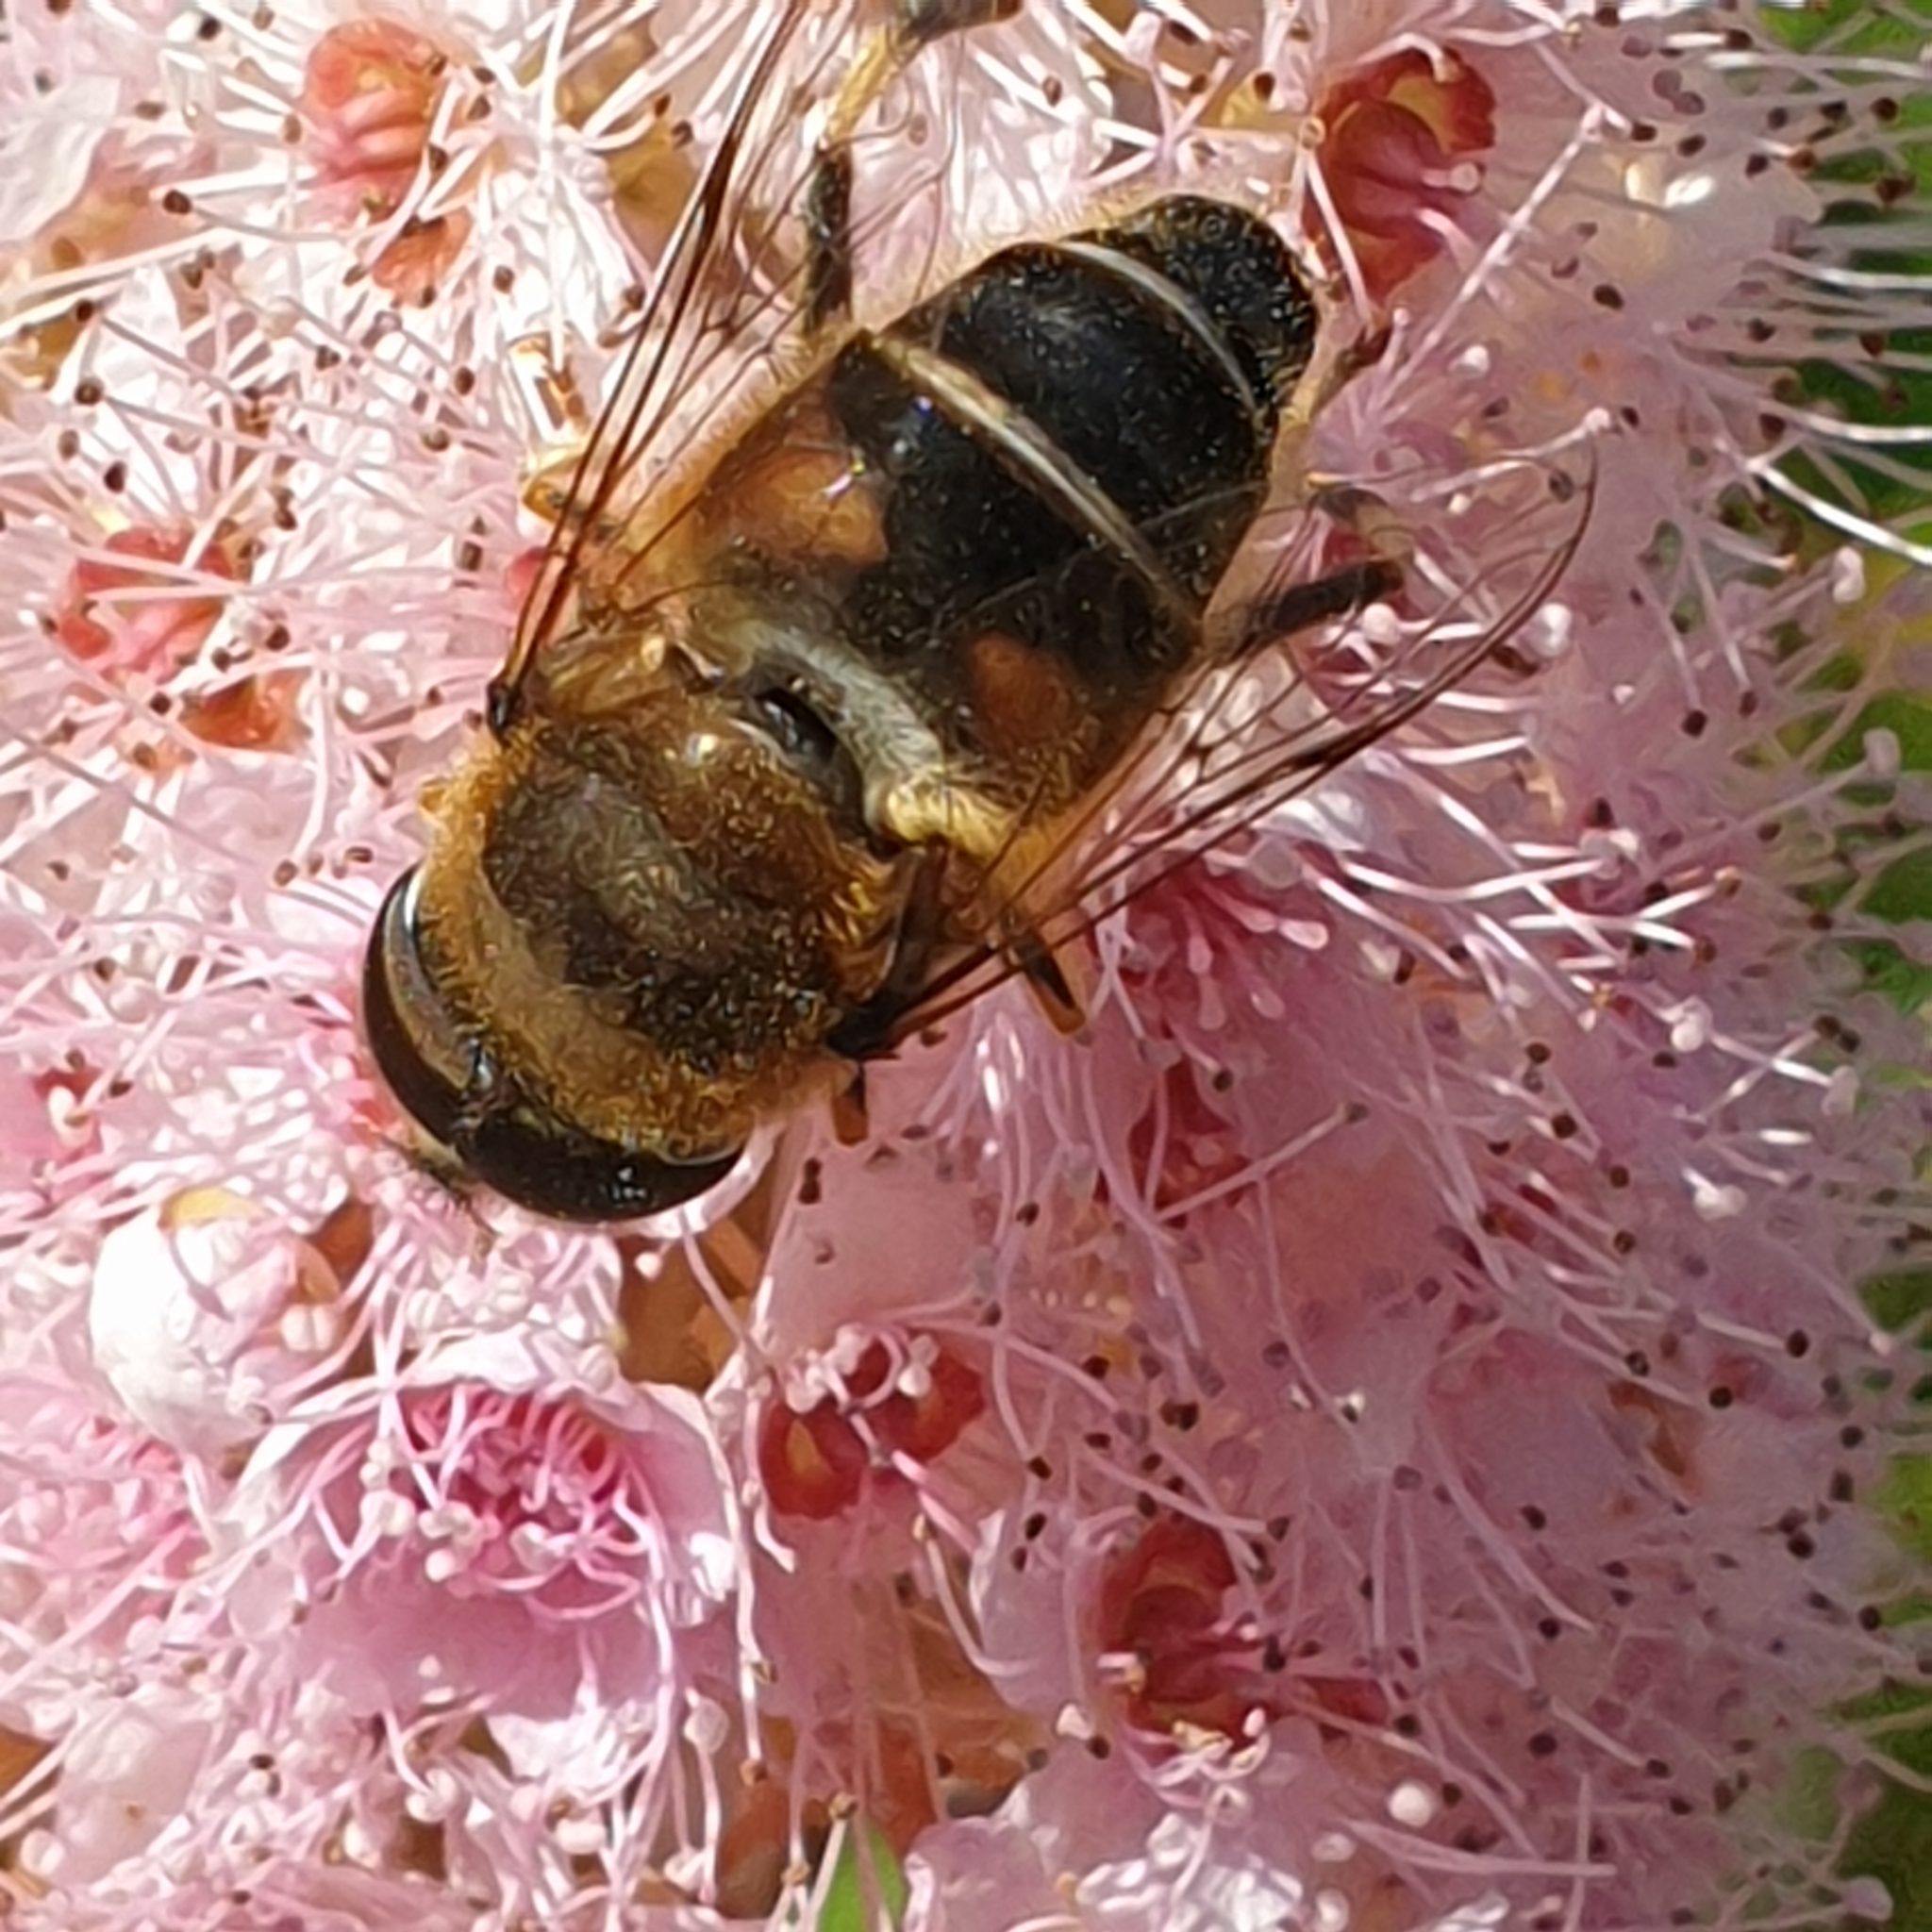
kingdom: Animalia
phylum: Arthropoda
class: Insecta
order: Diptera
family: Syrphidae
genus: Eristalis
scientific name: Eristalis pertinax
